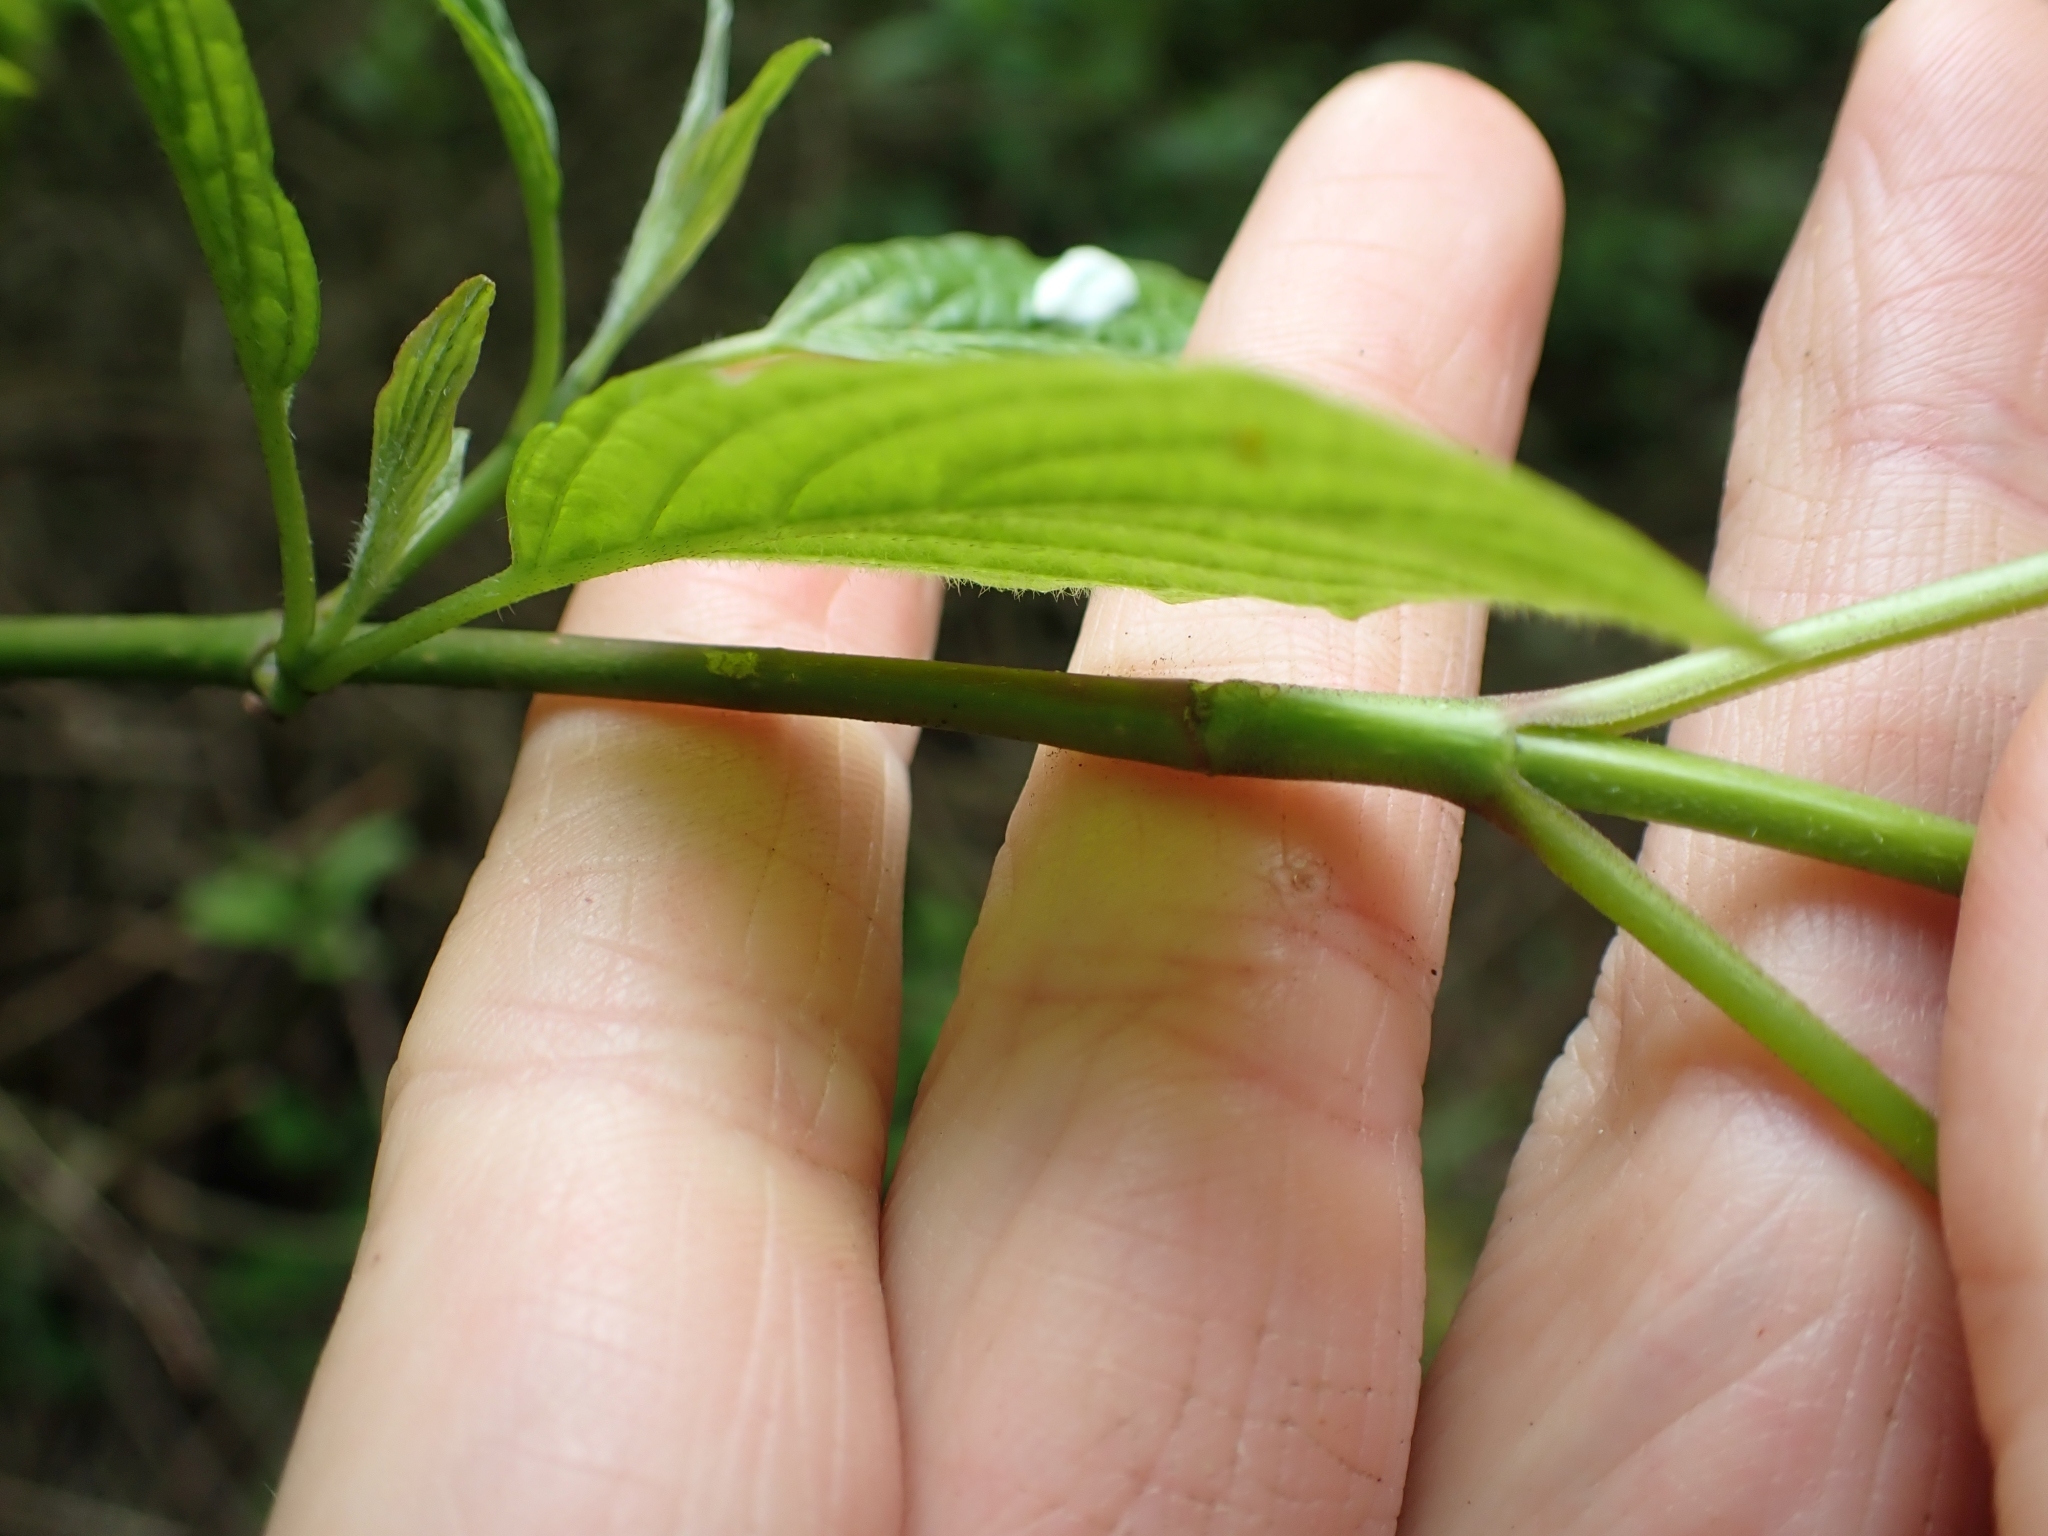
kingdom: Plantae
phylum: Tracheophyta
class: Magnoliopsida
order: Cornales
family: Cornaceae
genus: Cornus
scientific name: Cornus sericea
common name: Red-osier dogwood
